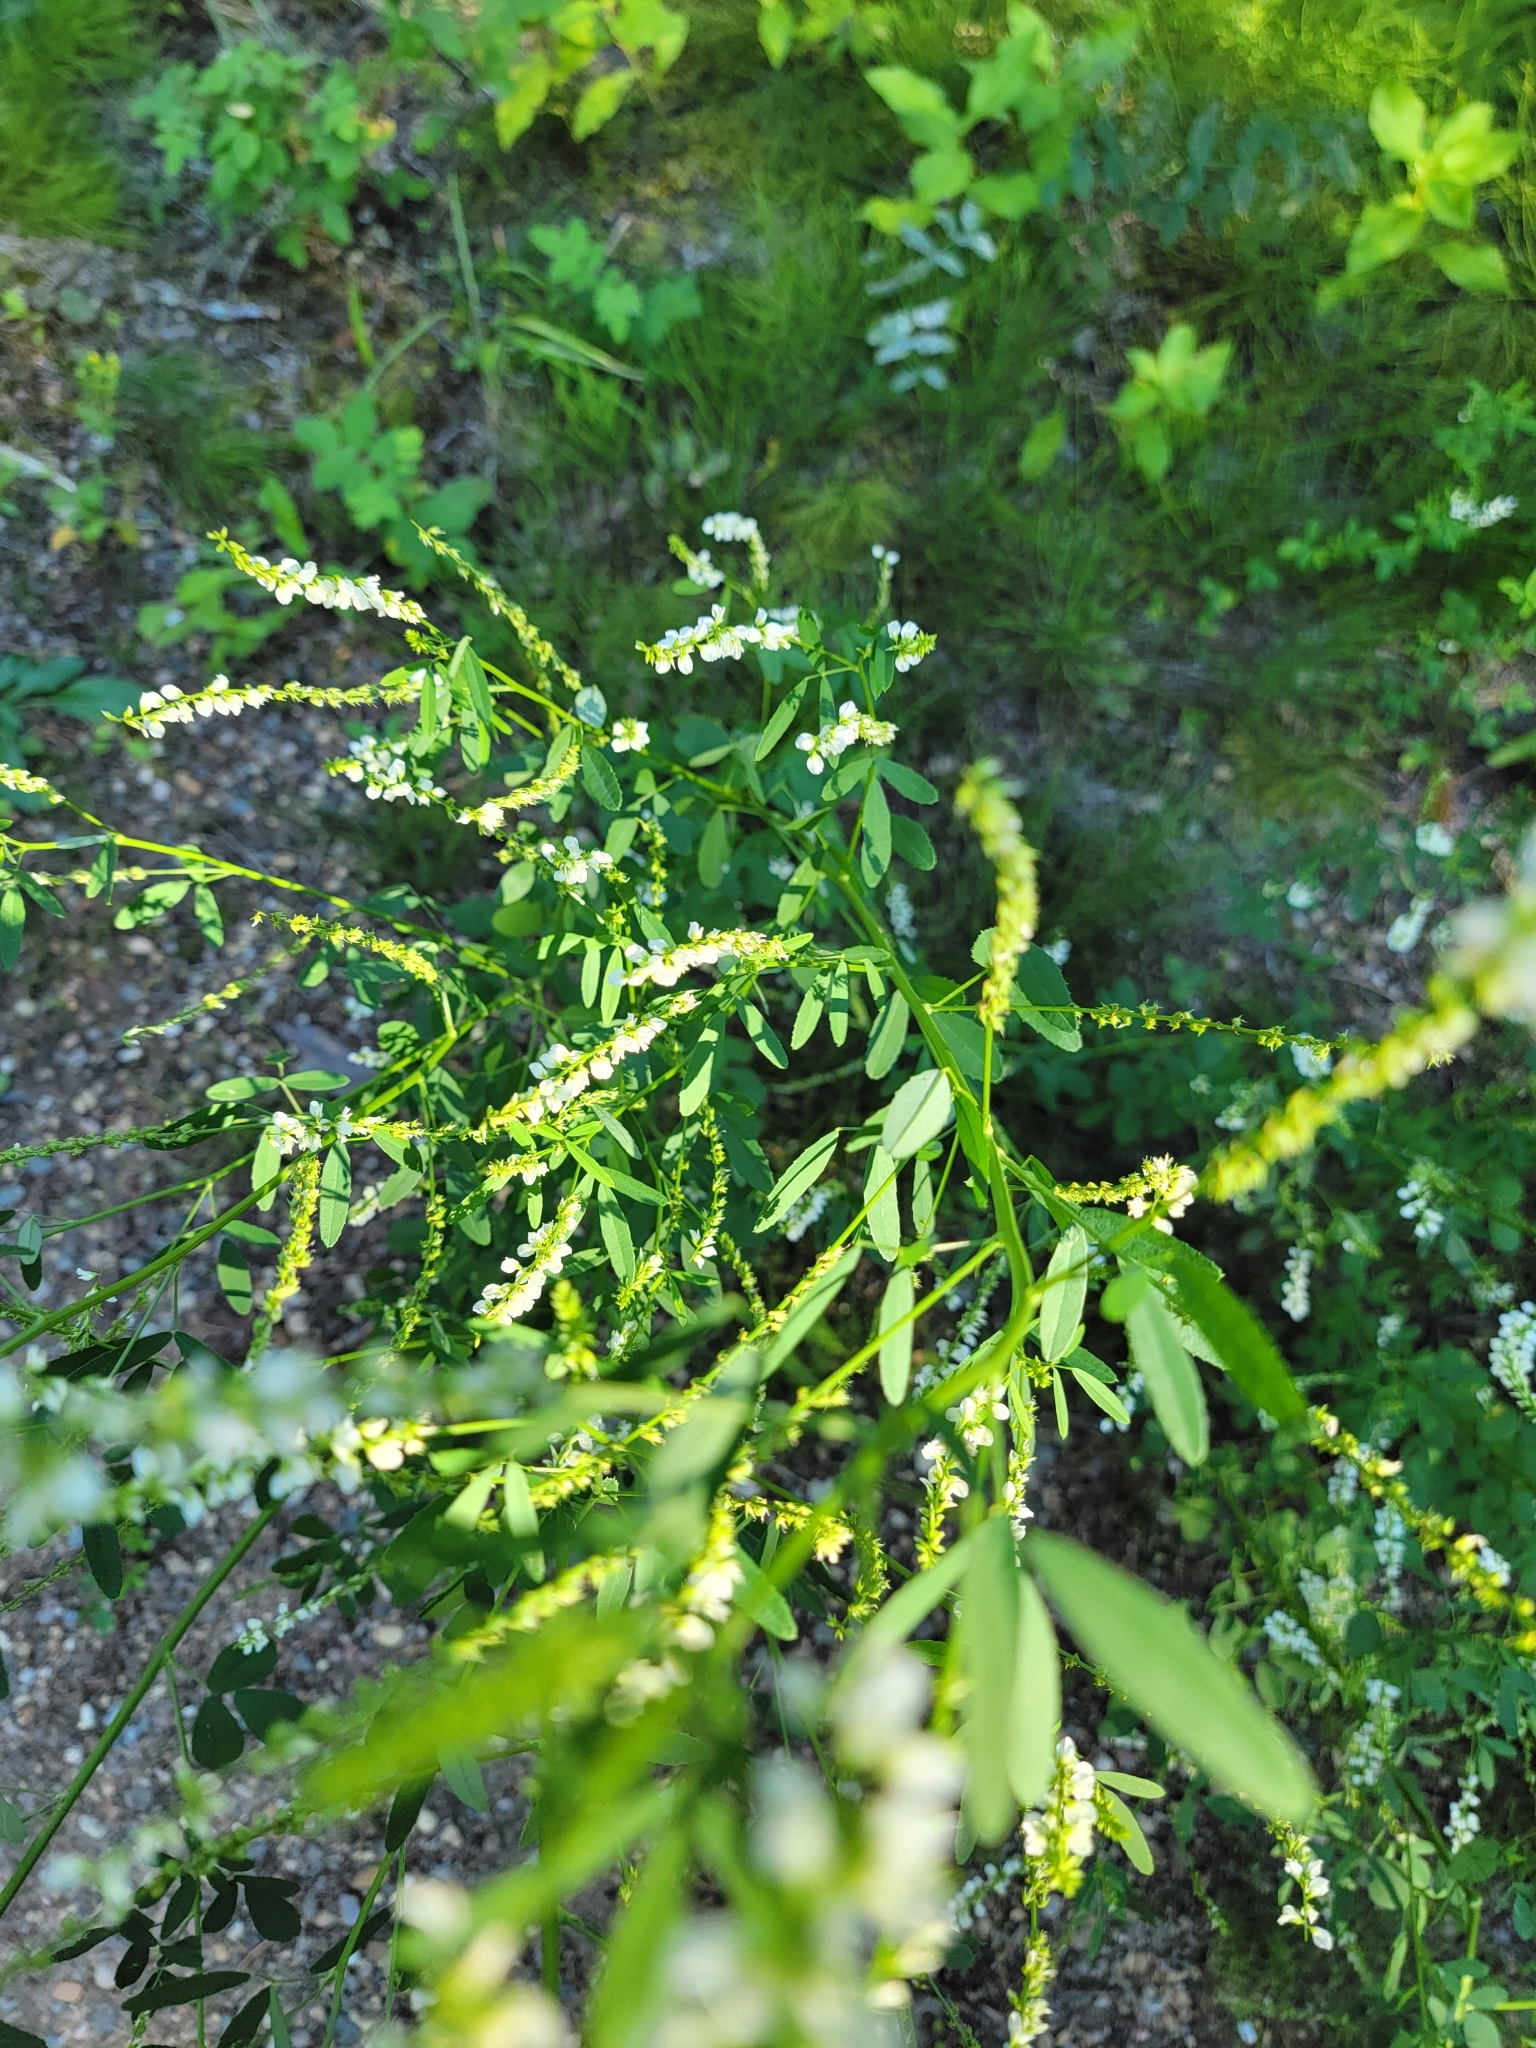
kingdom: Plantae
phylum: Tracheophyta
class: Magnoliopsida
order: Fabales
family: Fabaceae
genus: Melilotus
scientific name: Melilotus albus
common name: White melilot
